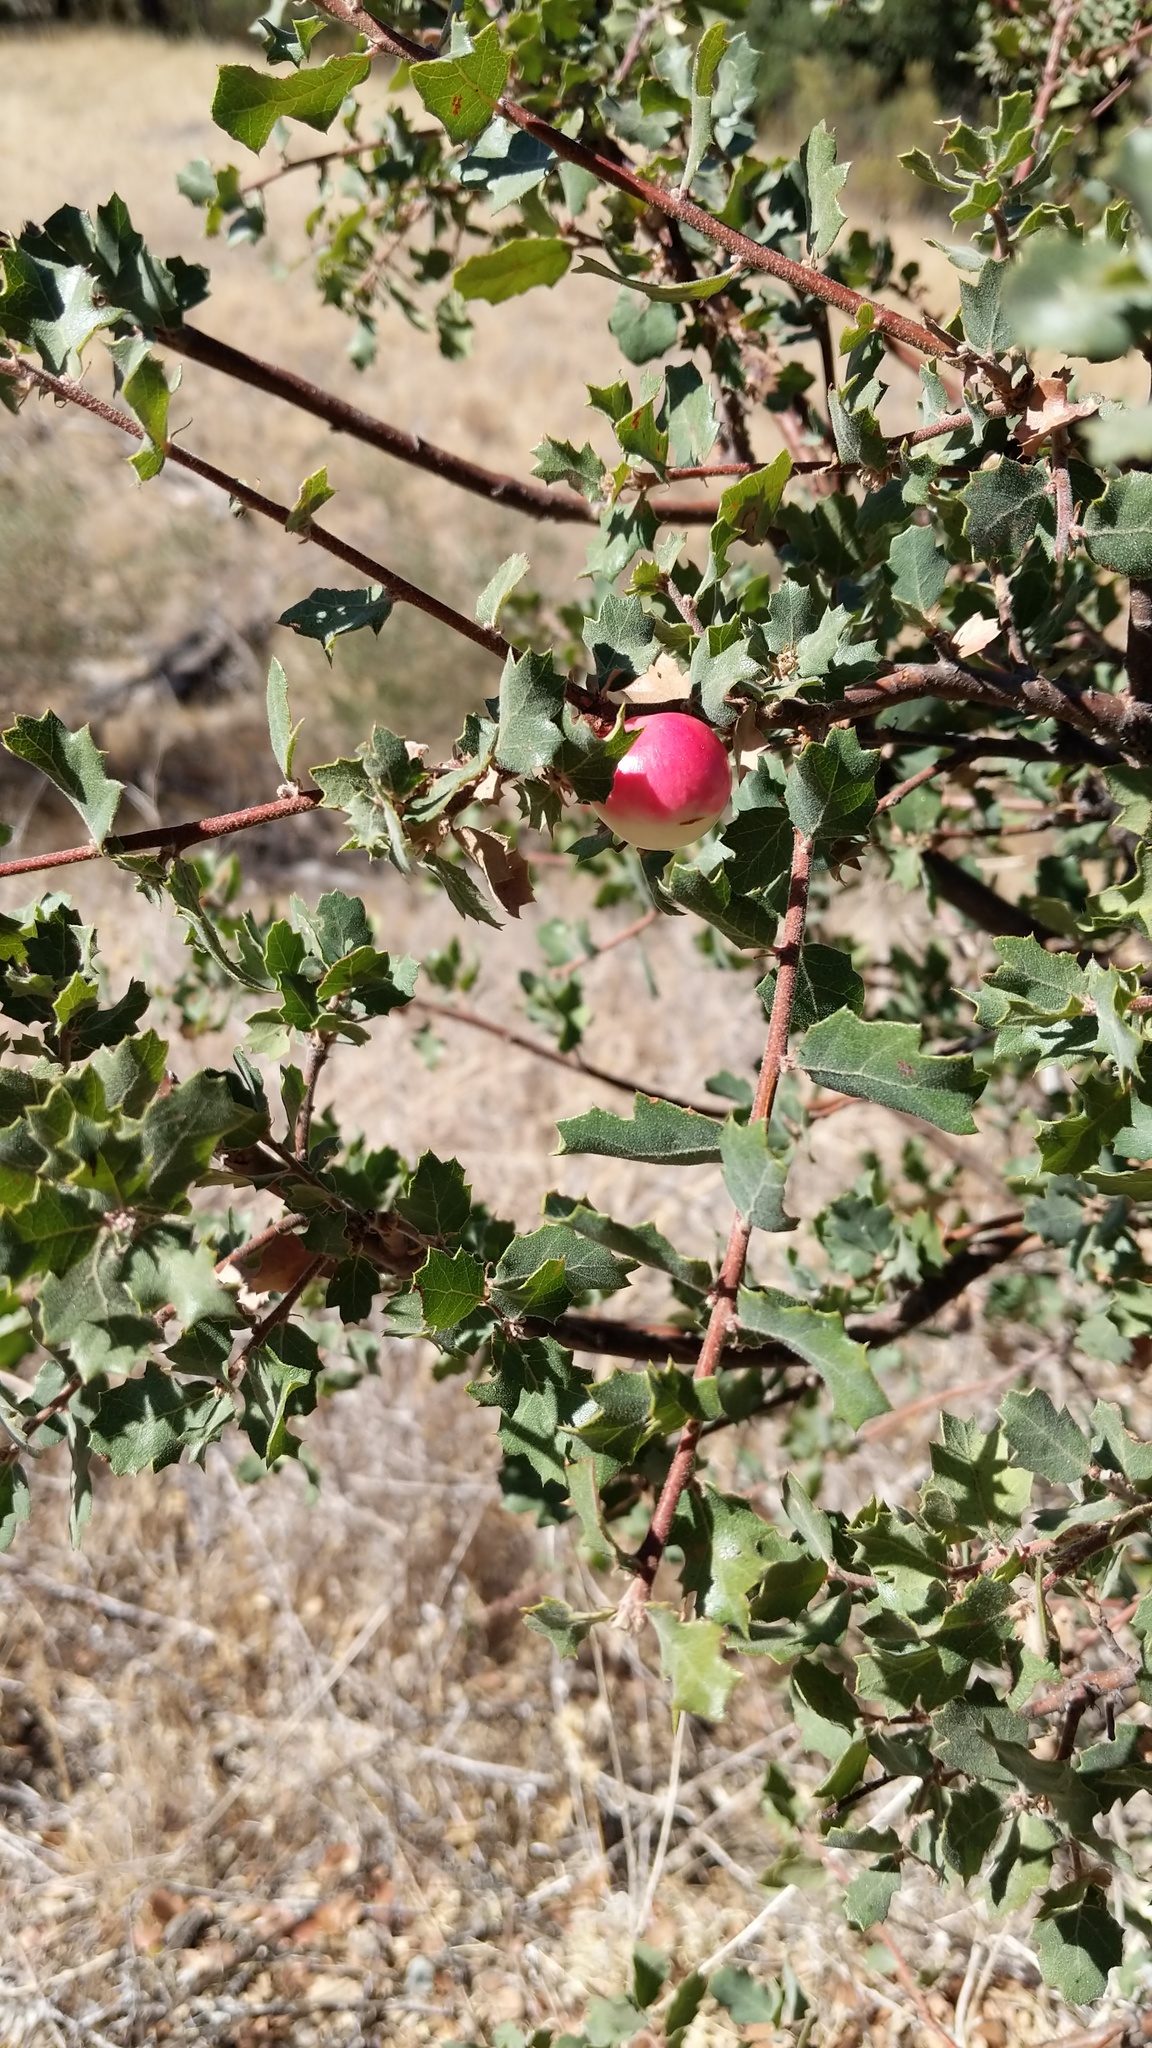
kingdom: Animalia
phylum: Arthropoda
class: Insecta
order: Hymenoptera
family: Cynipidae
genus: Andricus
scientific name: Andricus quercuscalifornicus
